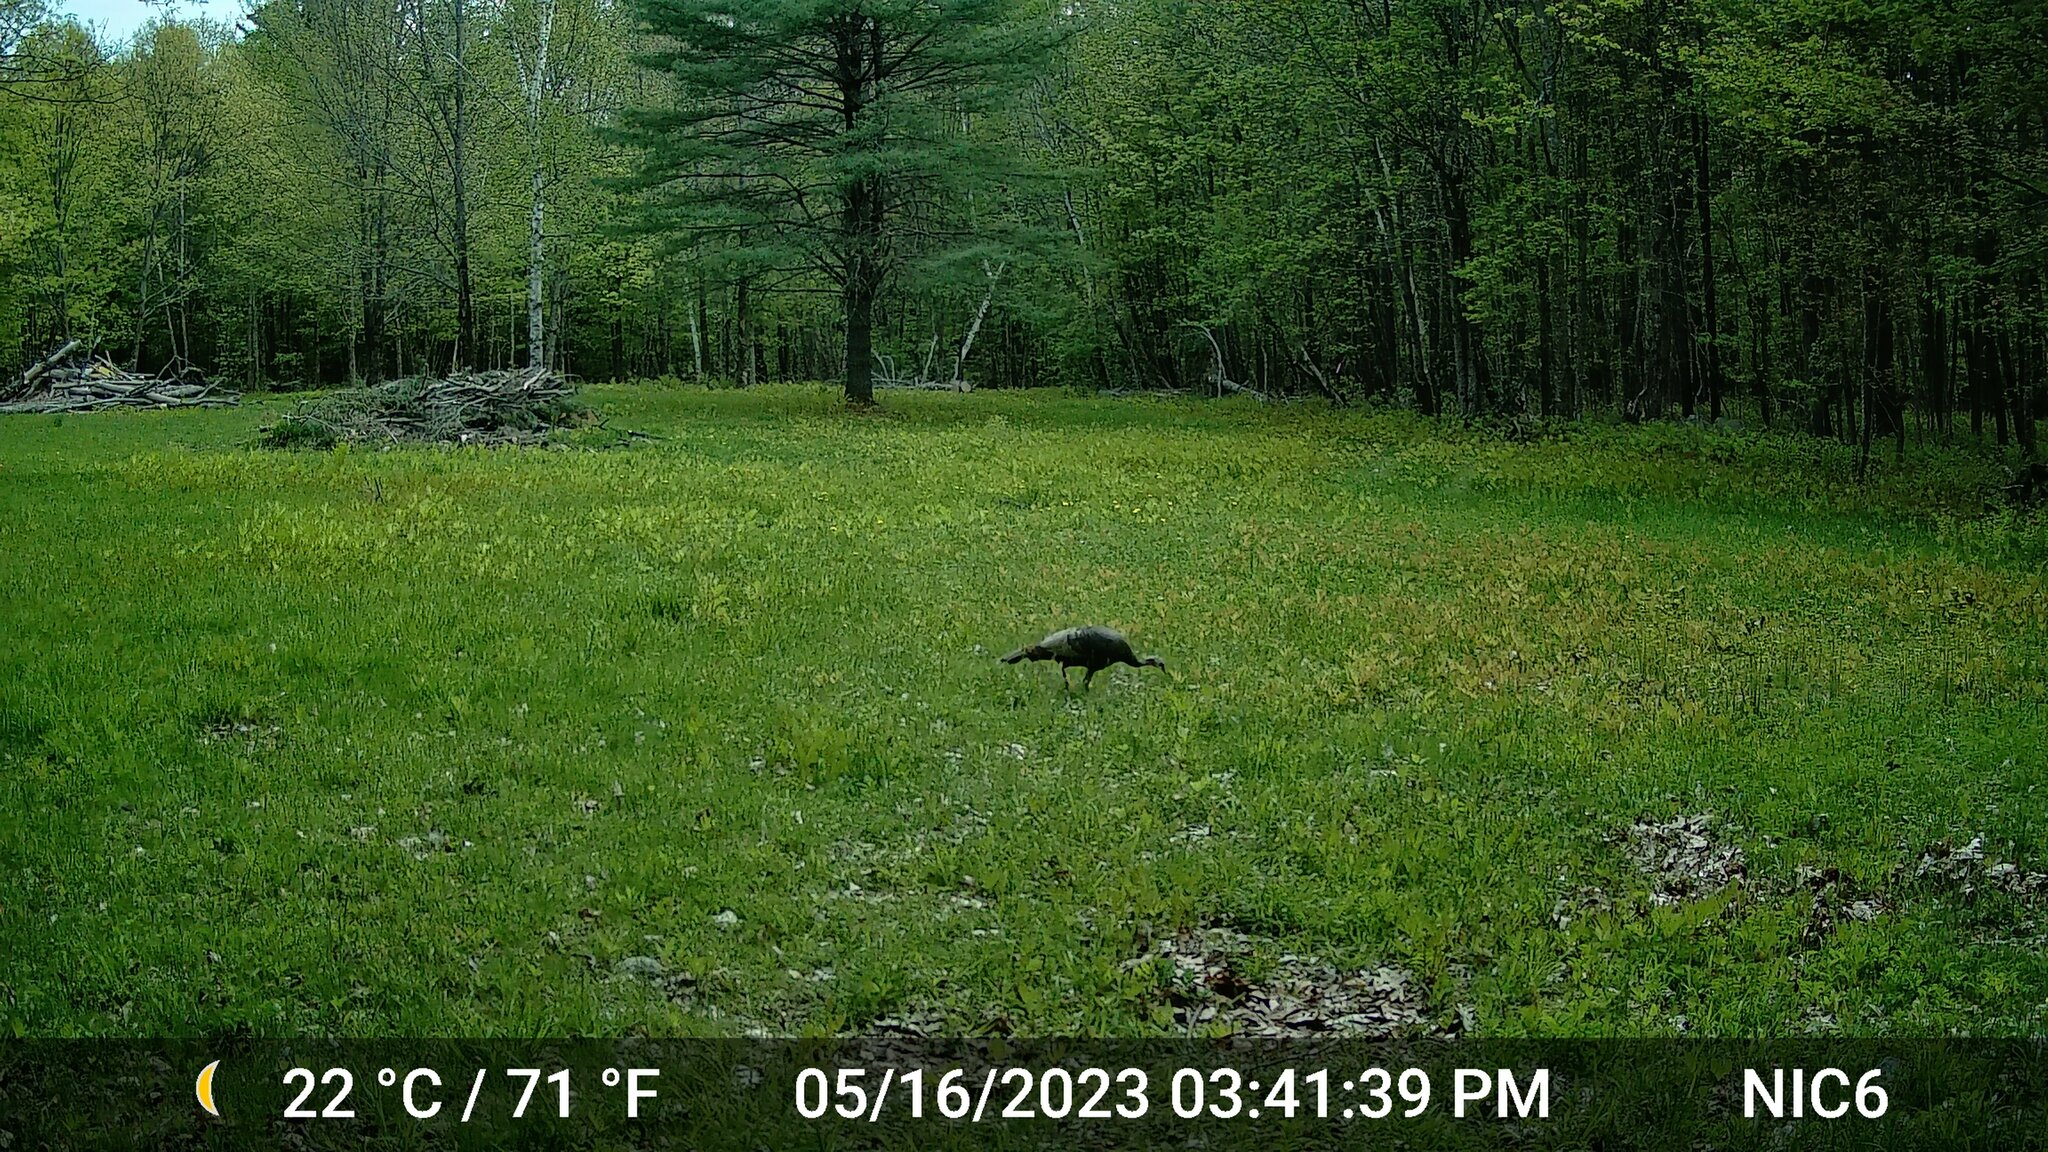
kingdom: Animalia
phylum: Chordata
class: Aves
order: Galliformes
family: Phasianidae
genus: Meleagris
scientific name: Meleagris gallopavo
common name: Wild turkey
